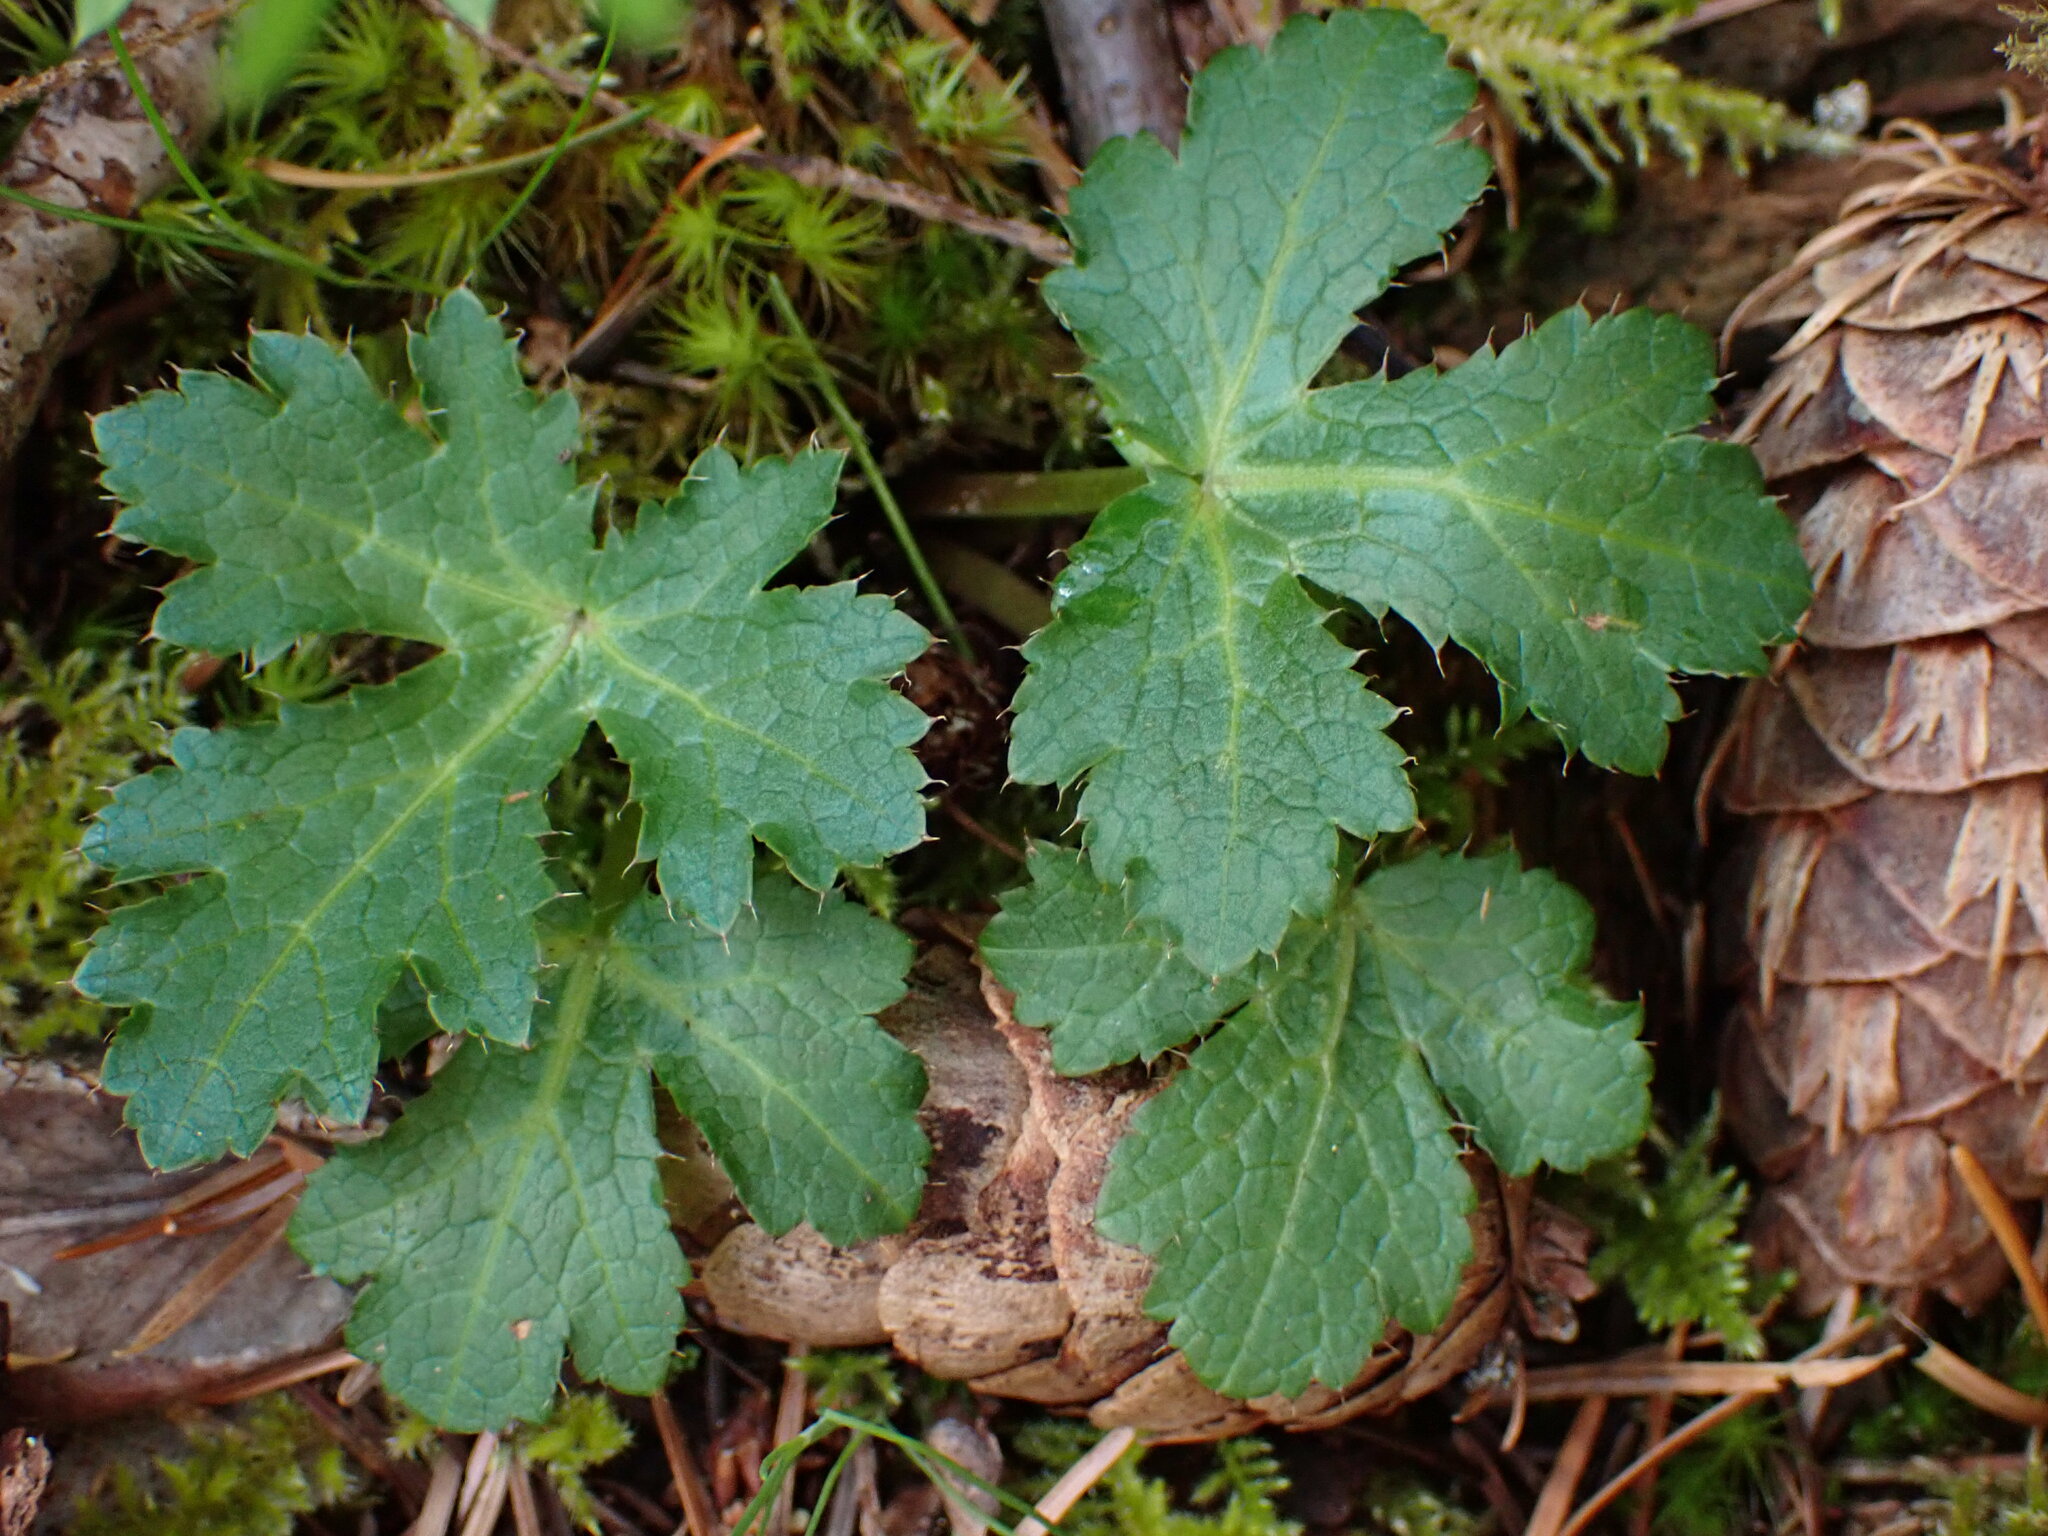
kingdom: Plantae
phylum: Tracheophyta
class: Magnoliopsida
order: Apiales
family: Apiaceae
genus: Sanicula
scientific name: Sanicula crassicaulis
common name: Western snakeroot
